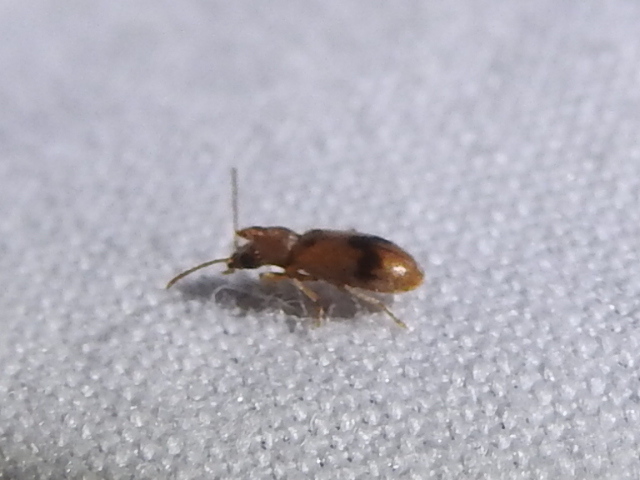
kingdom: Animalia
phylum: Arthropoda
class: Insecta
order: Coleoptera
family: Anthicidae
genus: Notoxus
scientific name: Notoxus monodon
